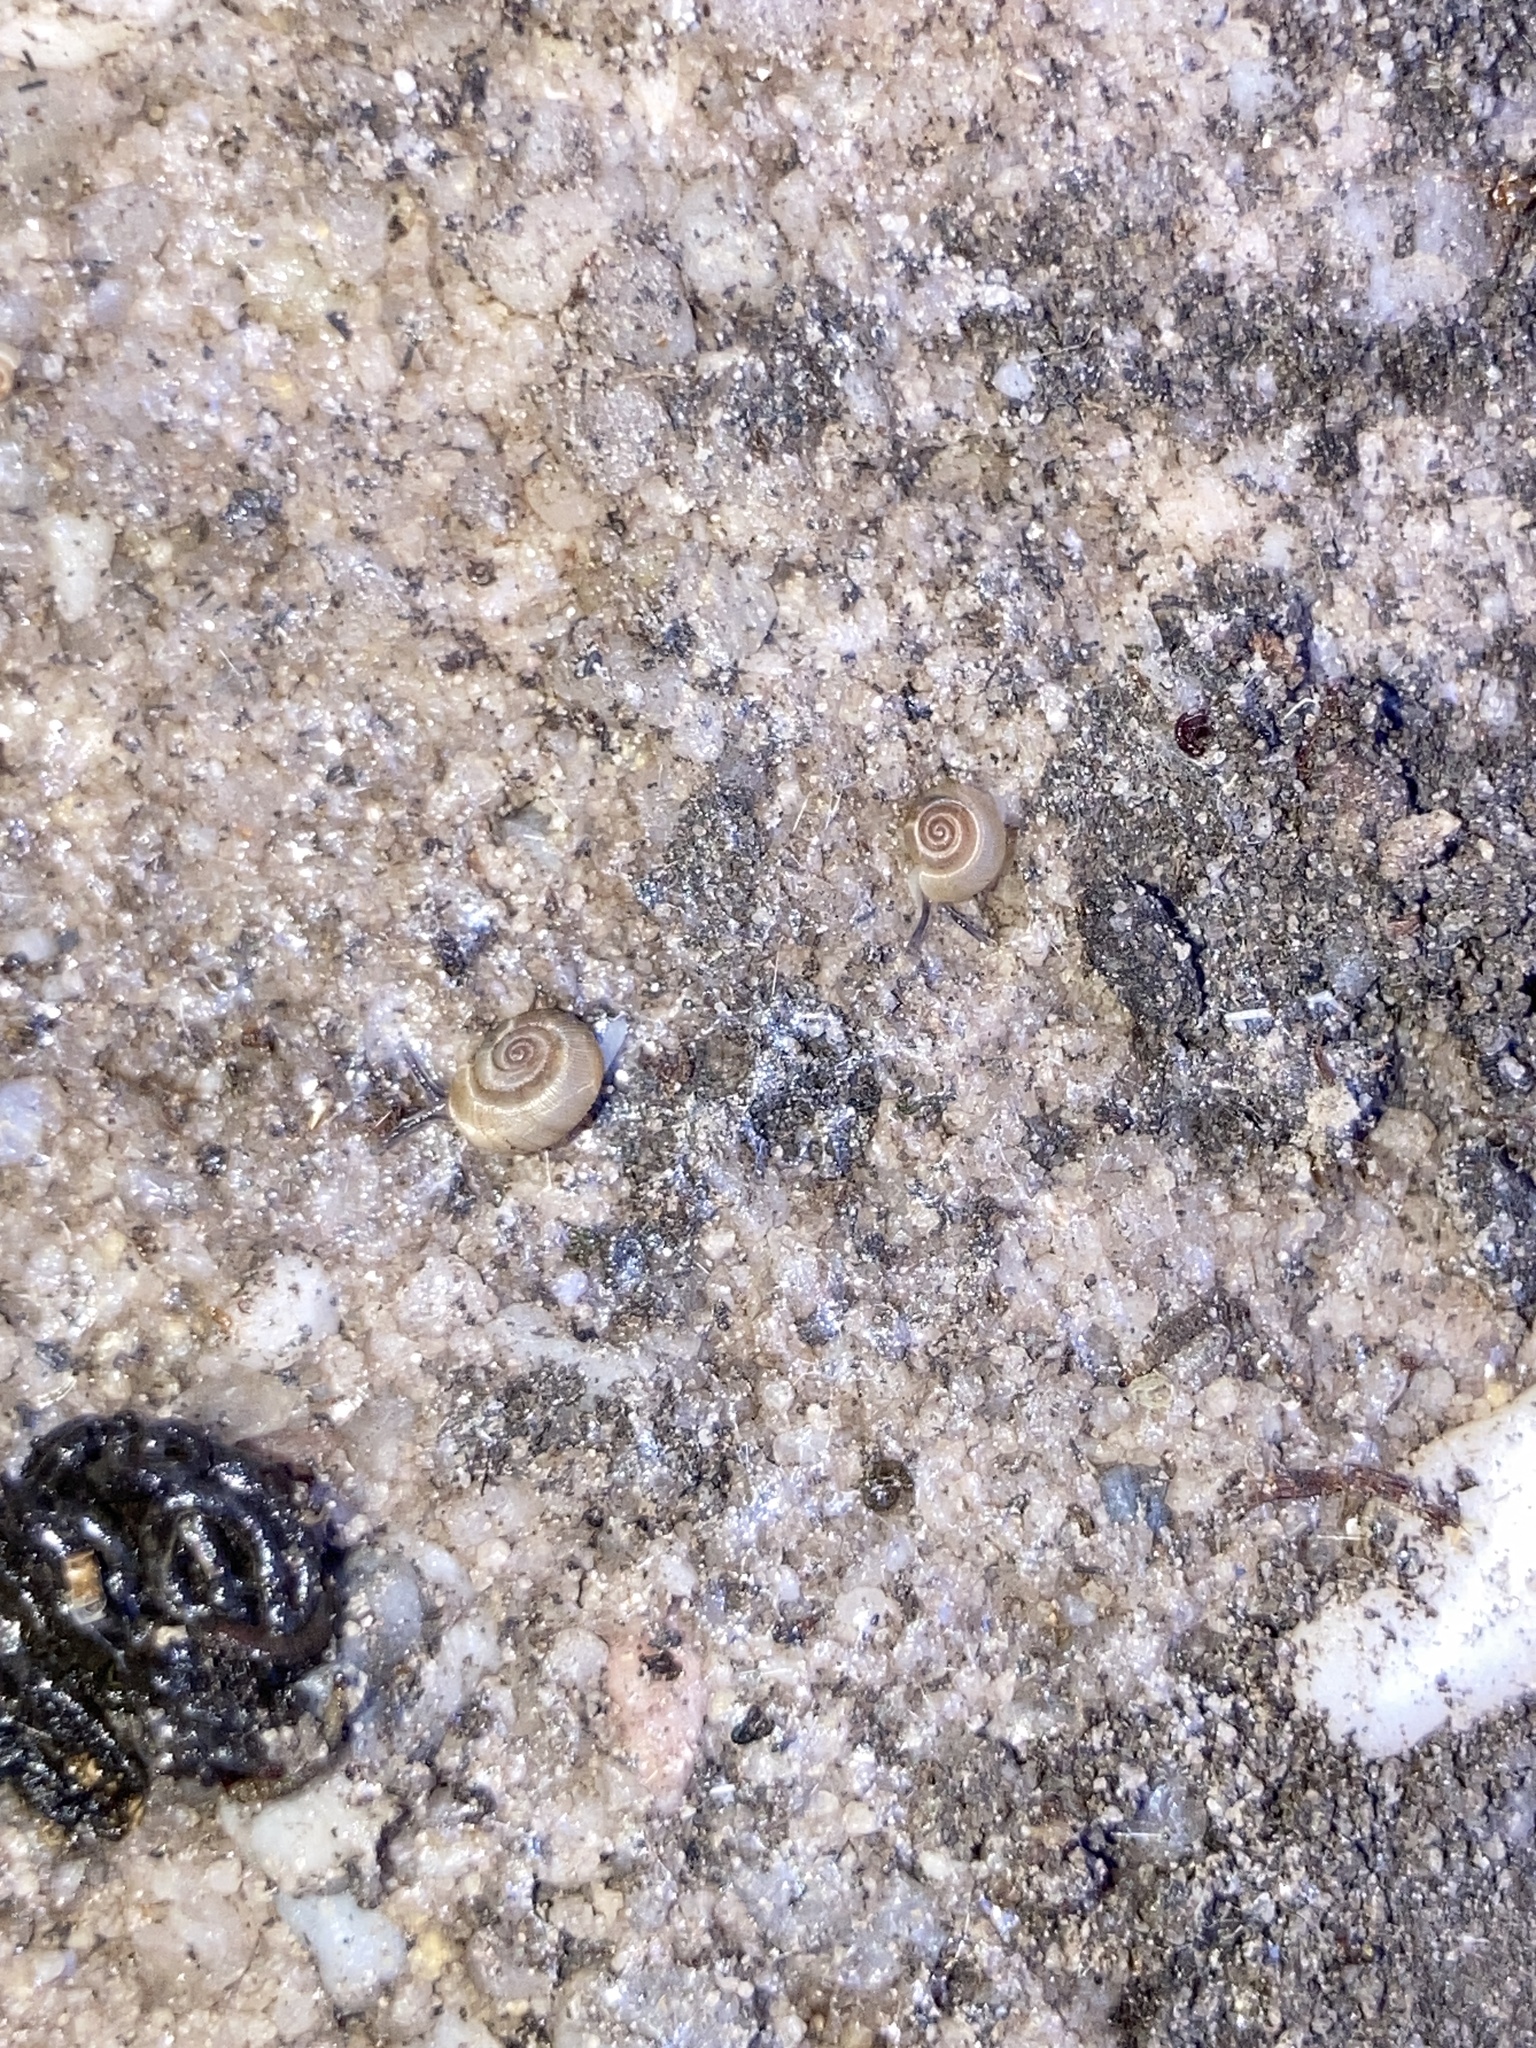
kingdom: Animalia
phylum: Mollusca
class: Gastropoda
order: Stylommatophora
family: Charopidae
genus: Elsothera
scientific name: Elsothera sericatula
